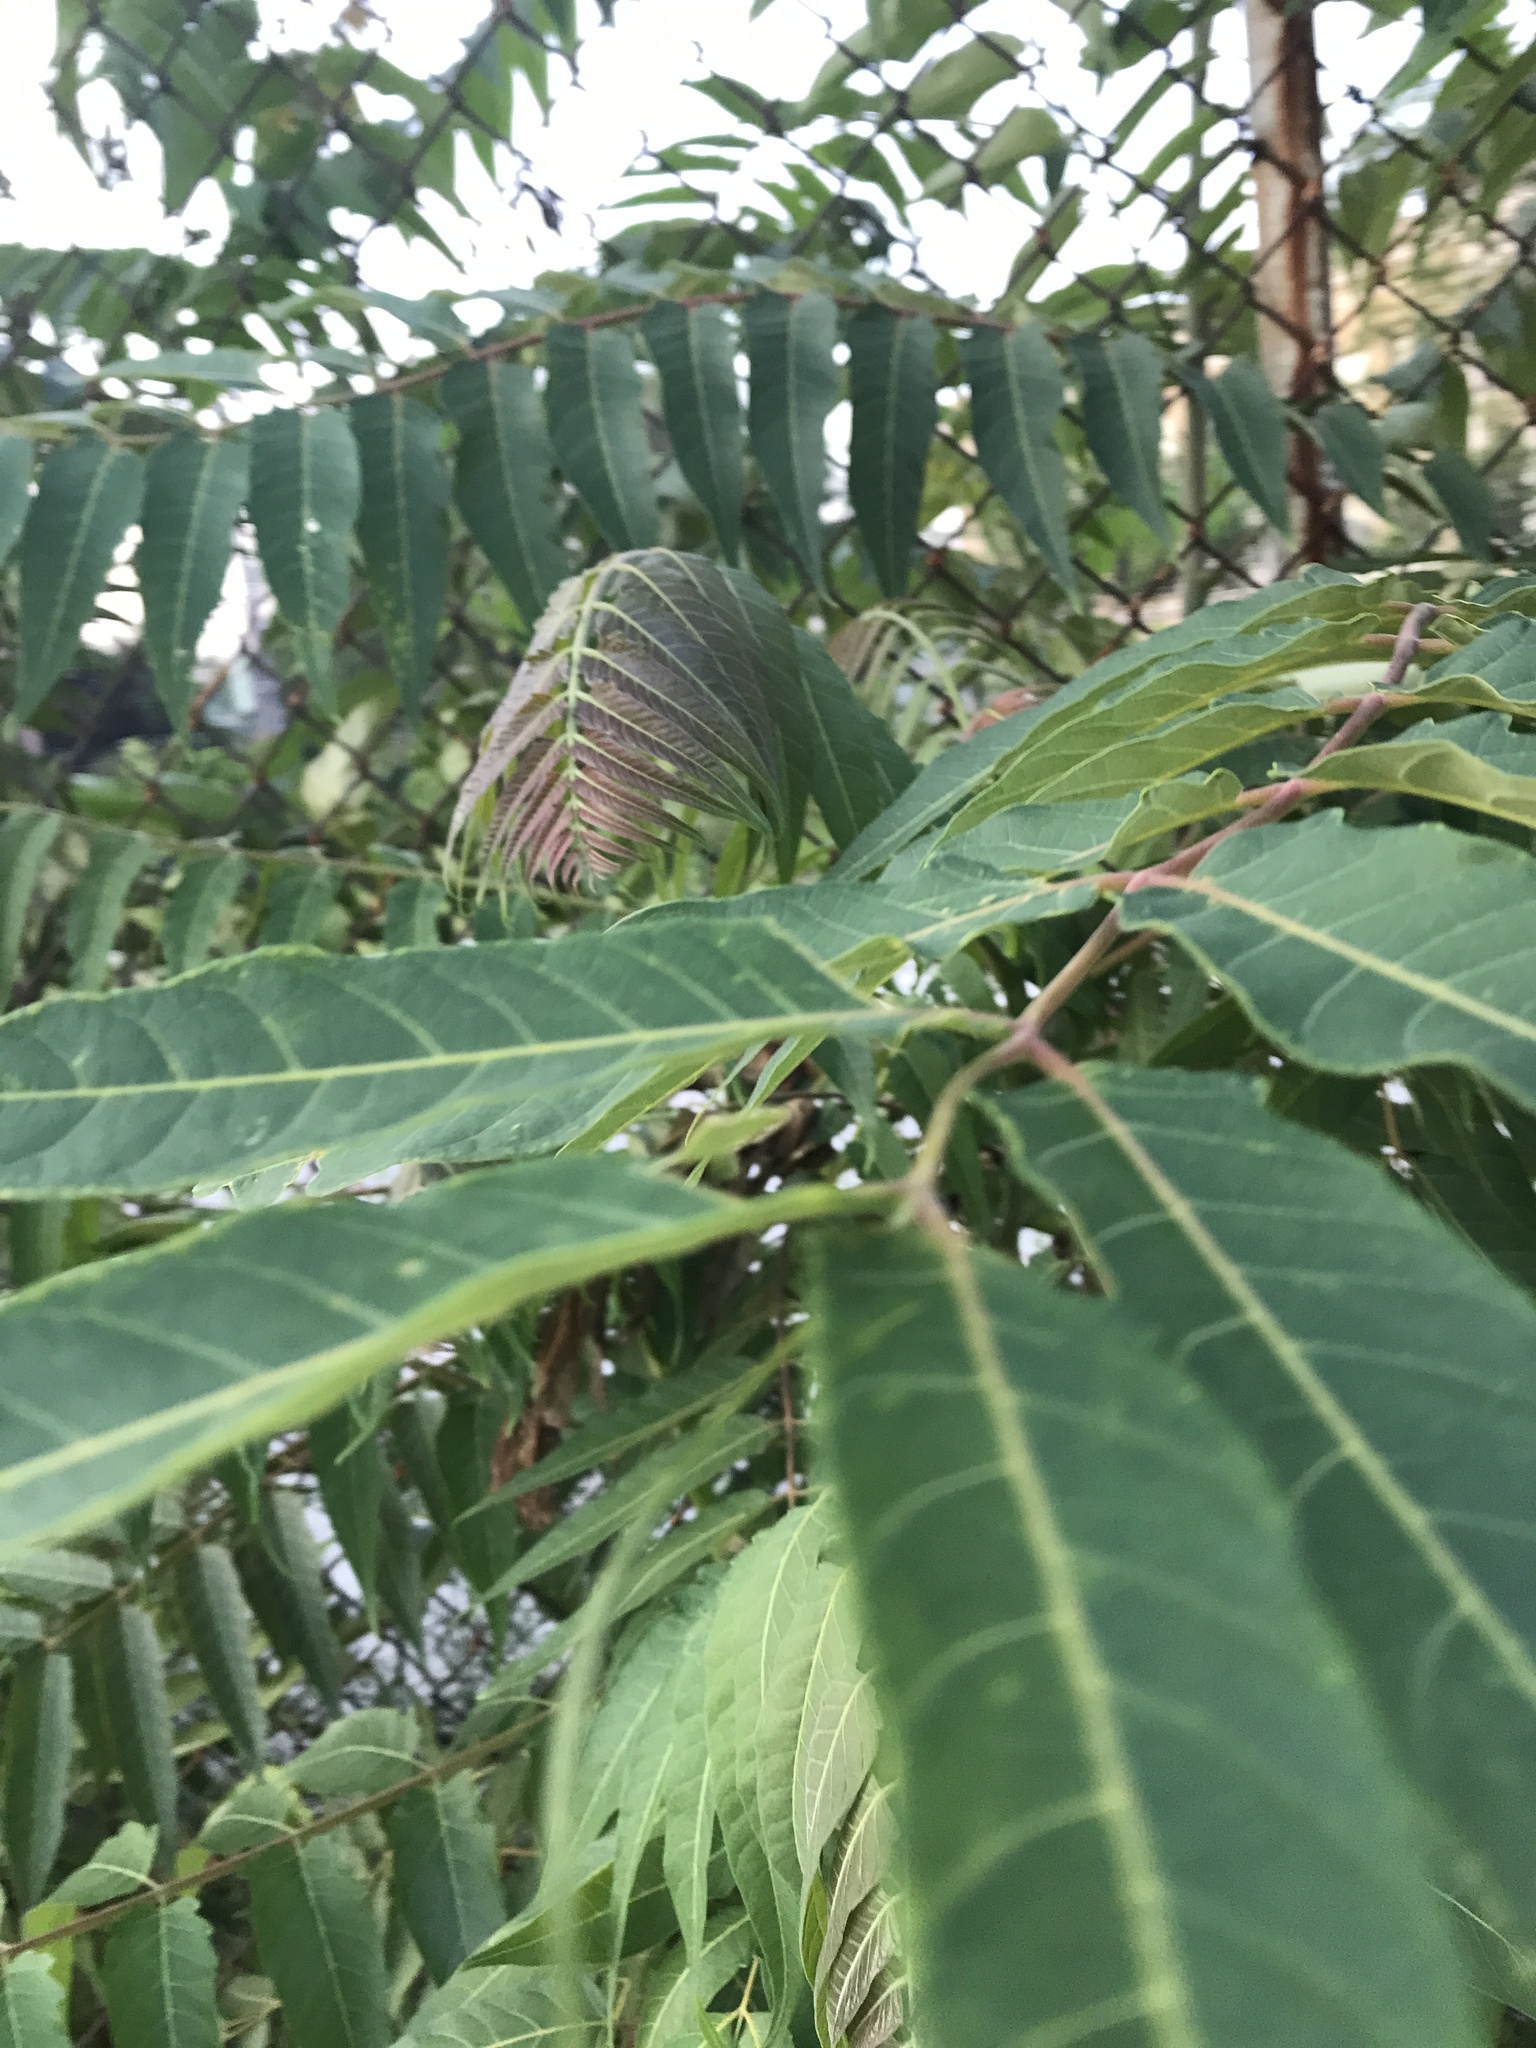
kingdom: Plantae
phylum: Tracheophyta
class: Magnoliopsida
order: Sapindales
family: Simaroubaceae
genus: Ailanthus
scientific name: Ailanthus altissima
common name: Tree-of-heaven
